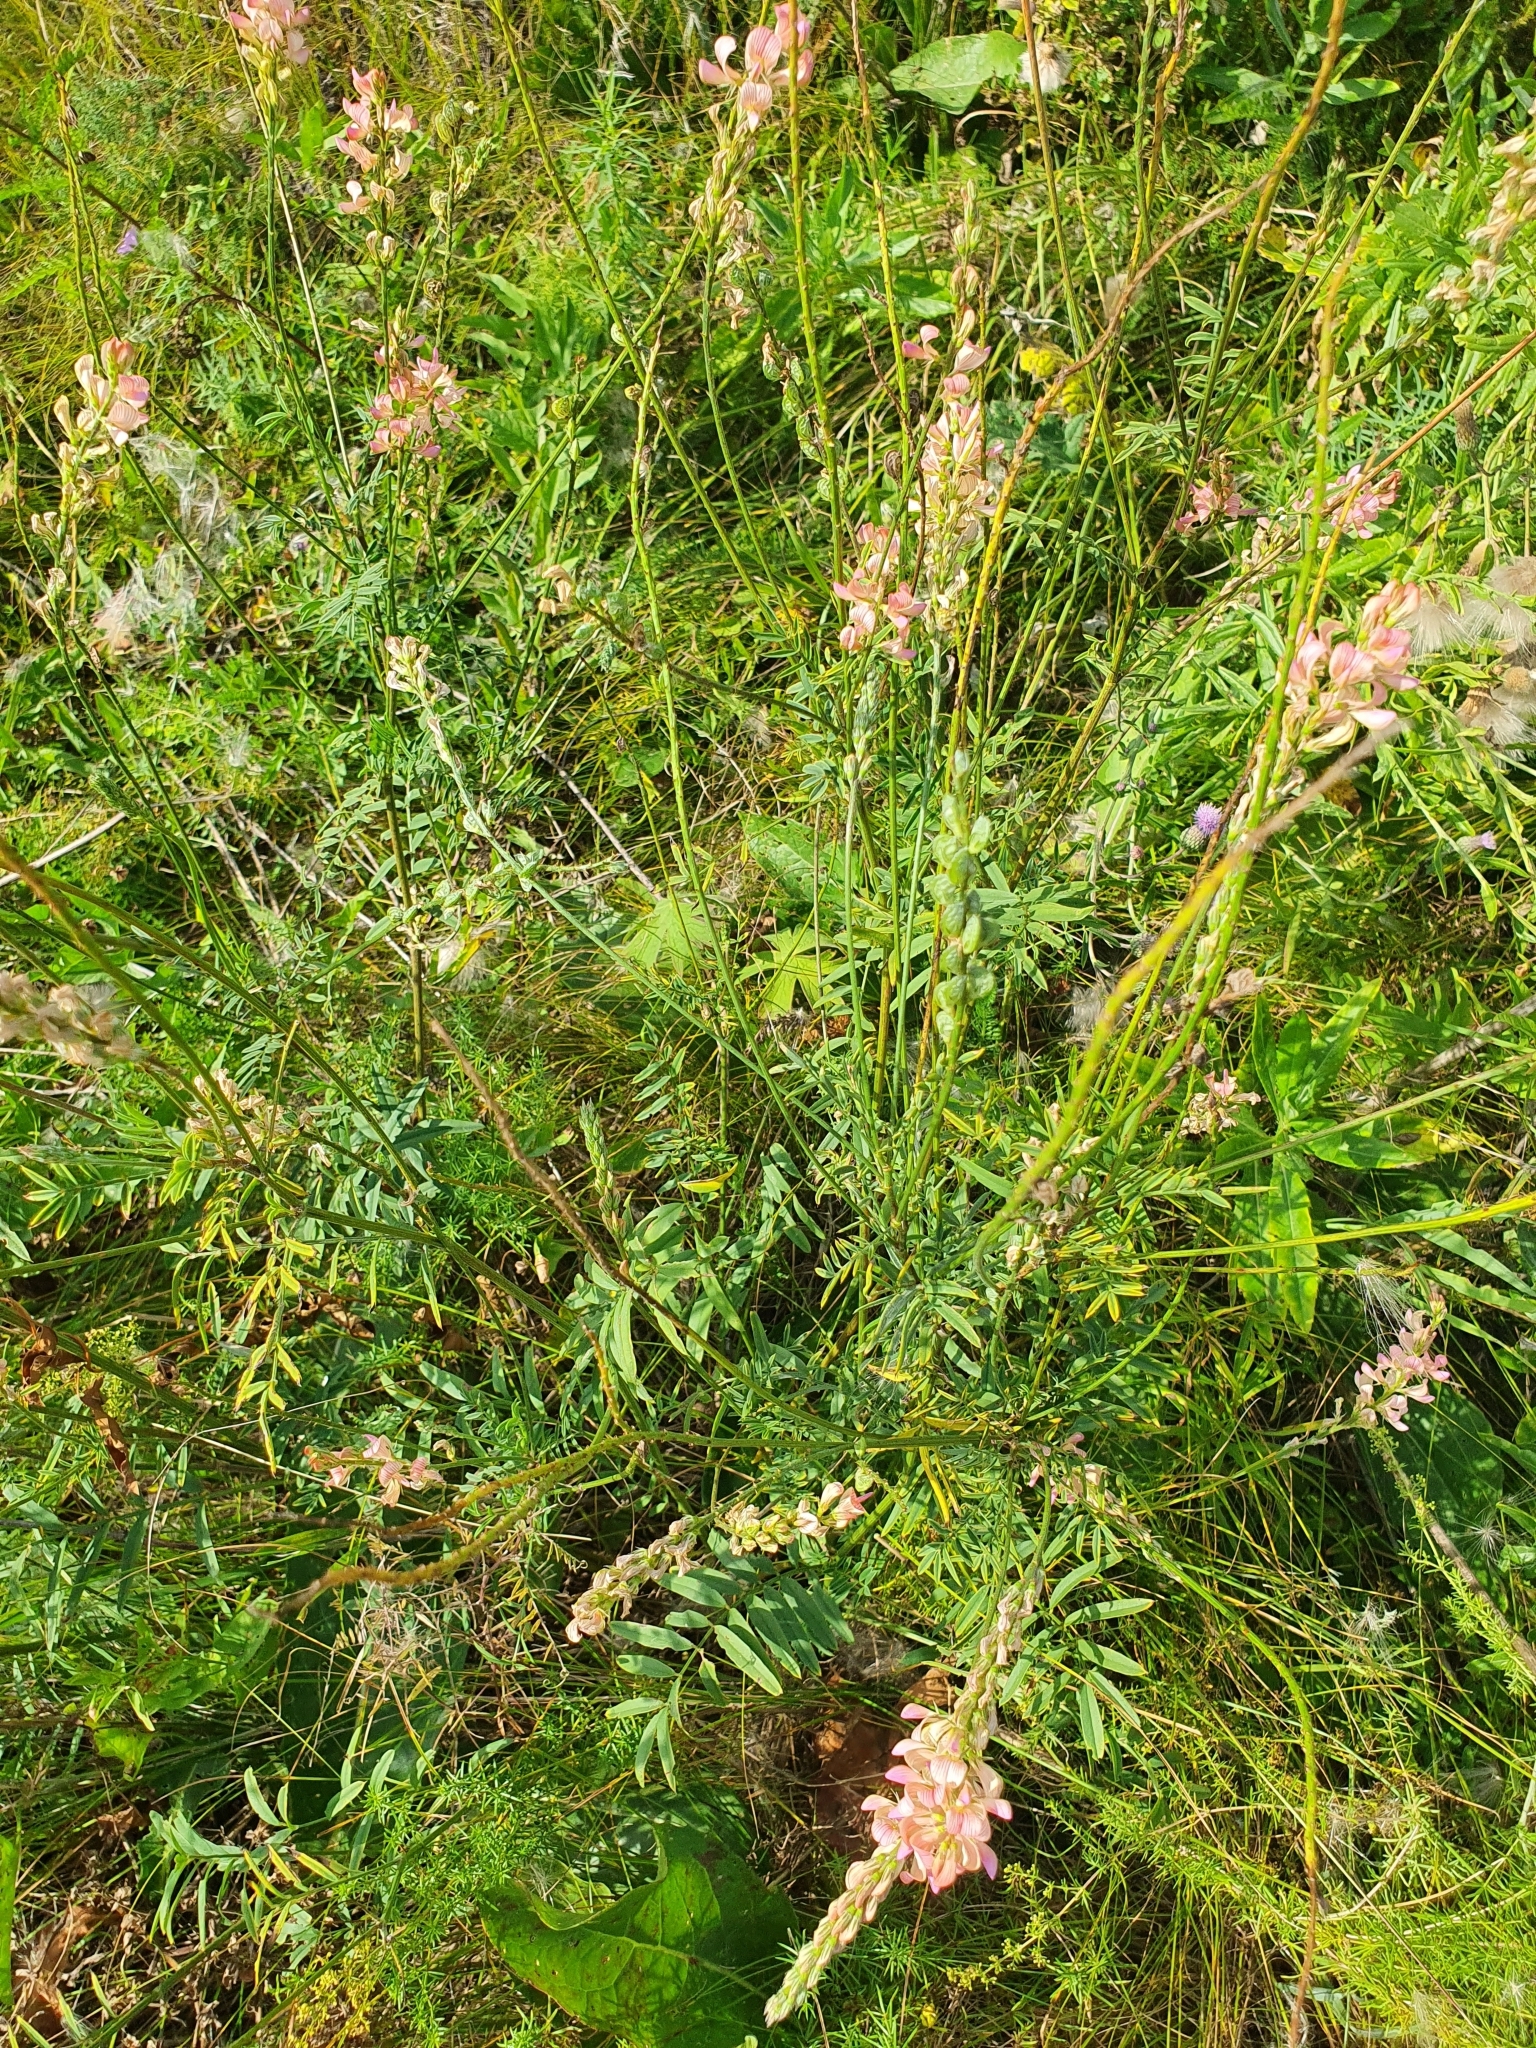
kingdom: Plantae
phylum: Tracheophyta
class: Magnoliopsida
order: Fabales
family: Fabaceae
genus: Onobrychis
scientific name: Onobrychis arenaria
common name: Sand esparcet
